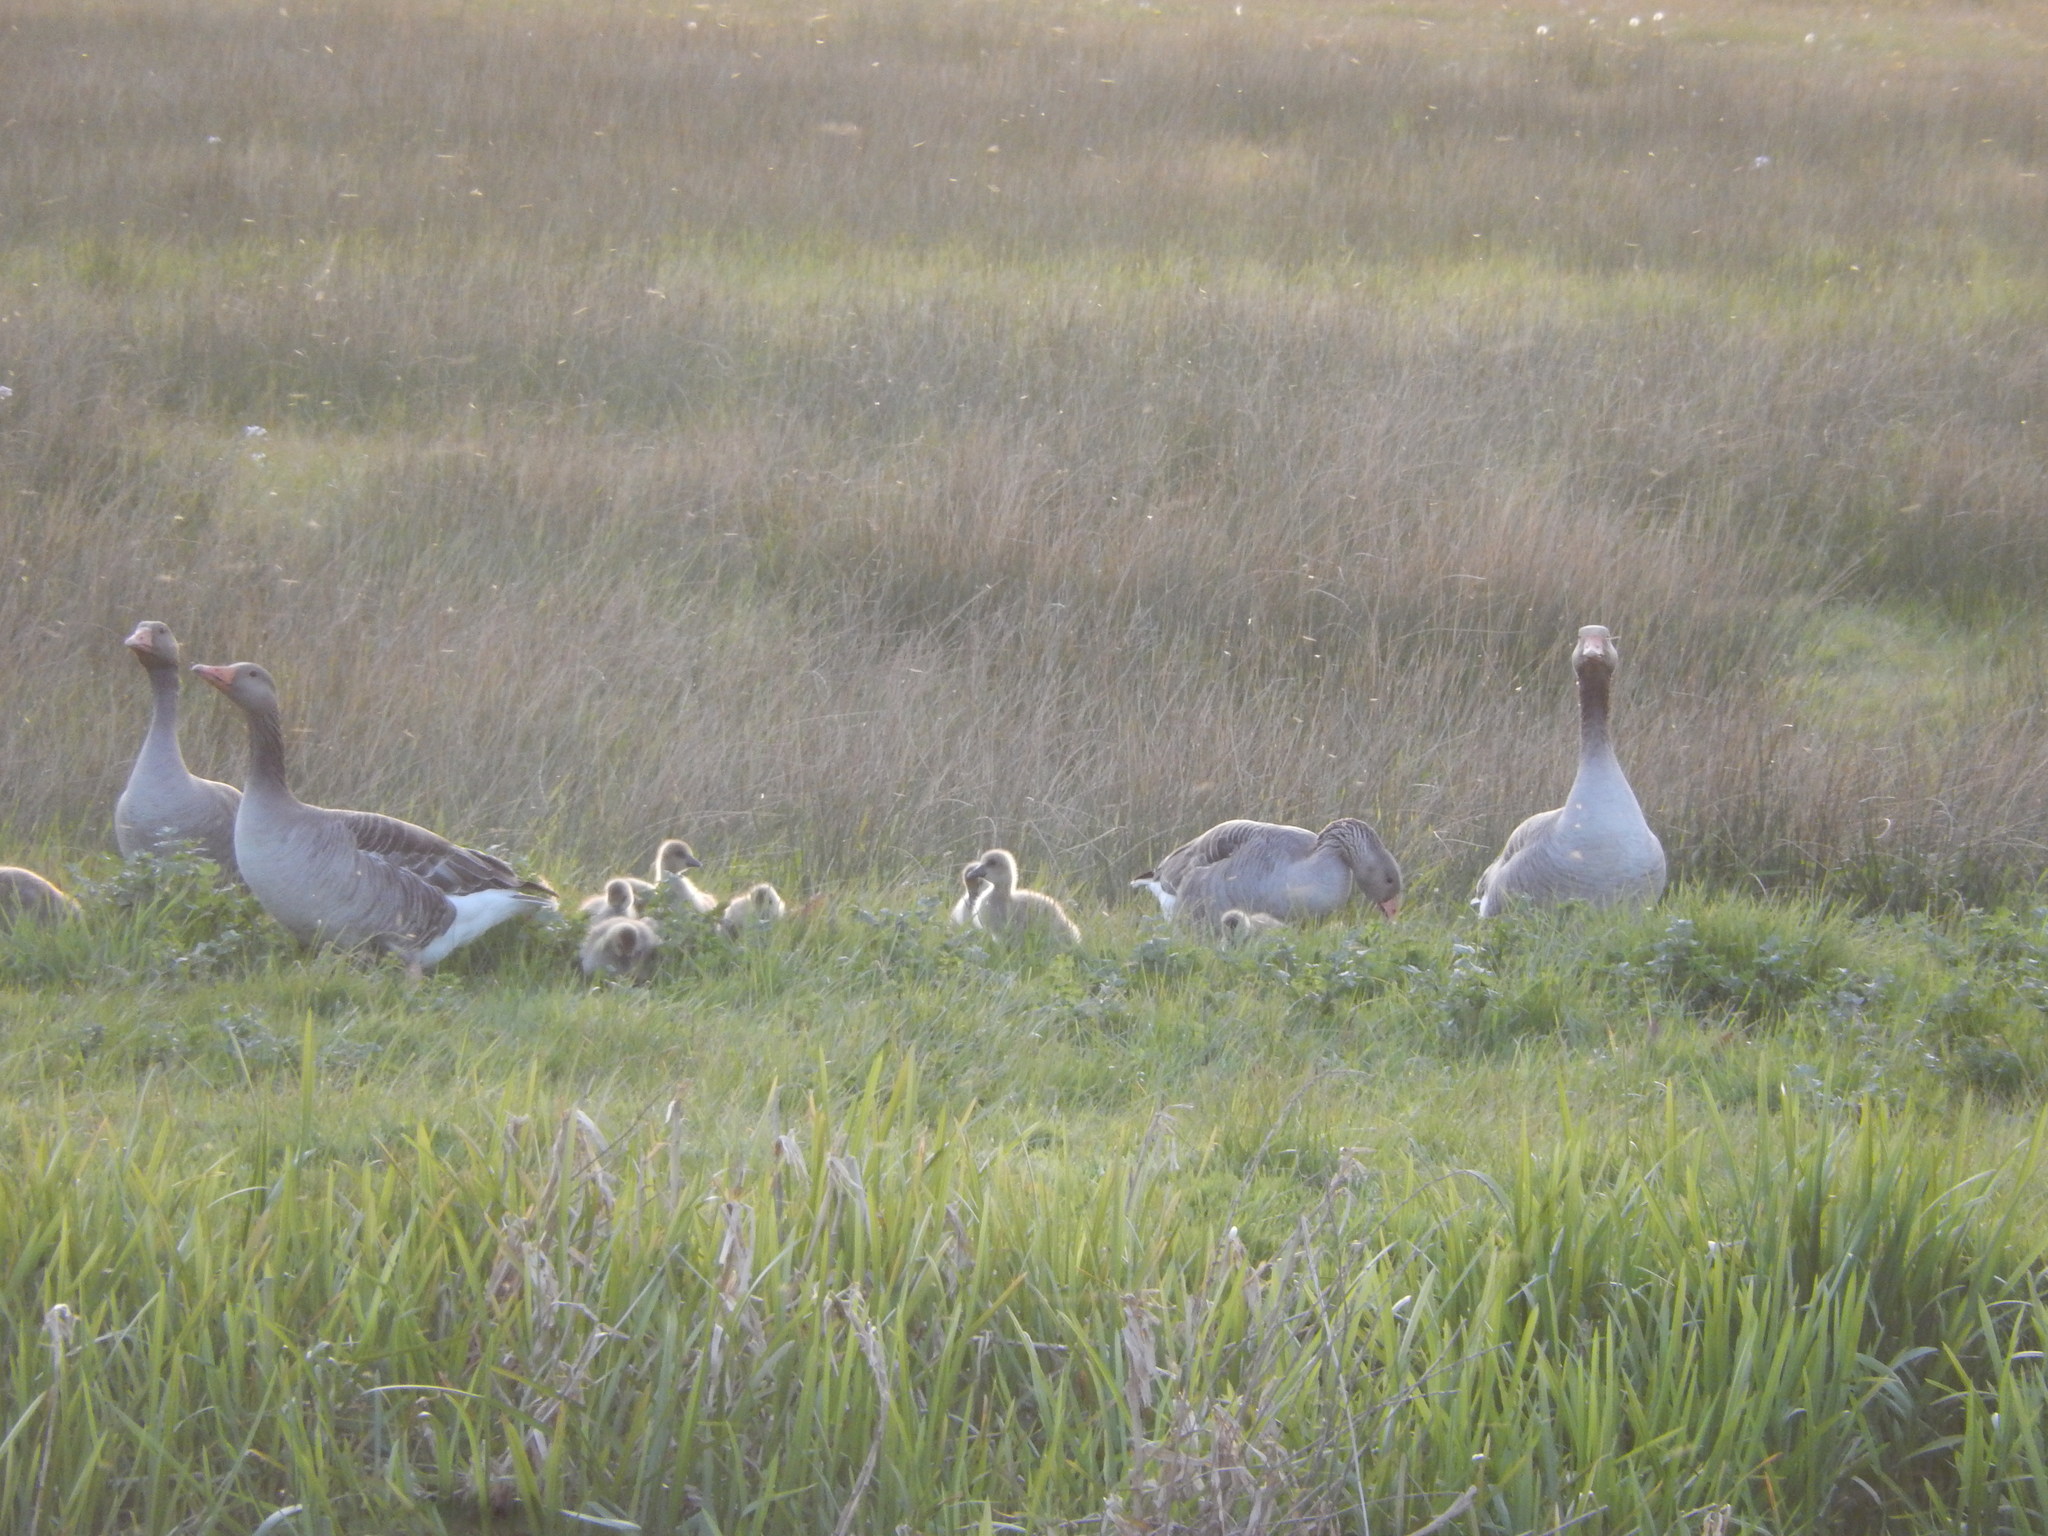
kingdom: Animalia
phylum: Chordata
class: Aves
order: Anseriformes
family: Anatidae
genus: Anser
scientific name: Anser anser
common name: Greylag goose
